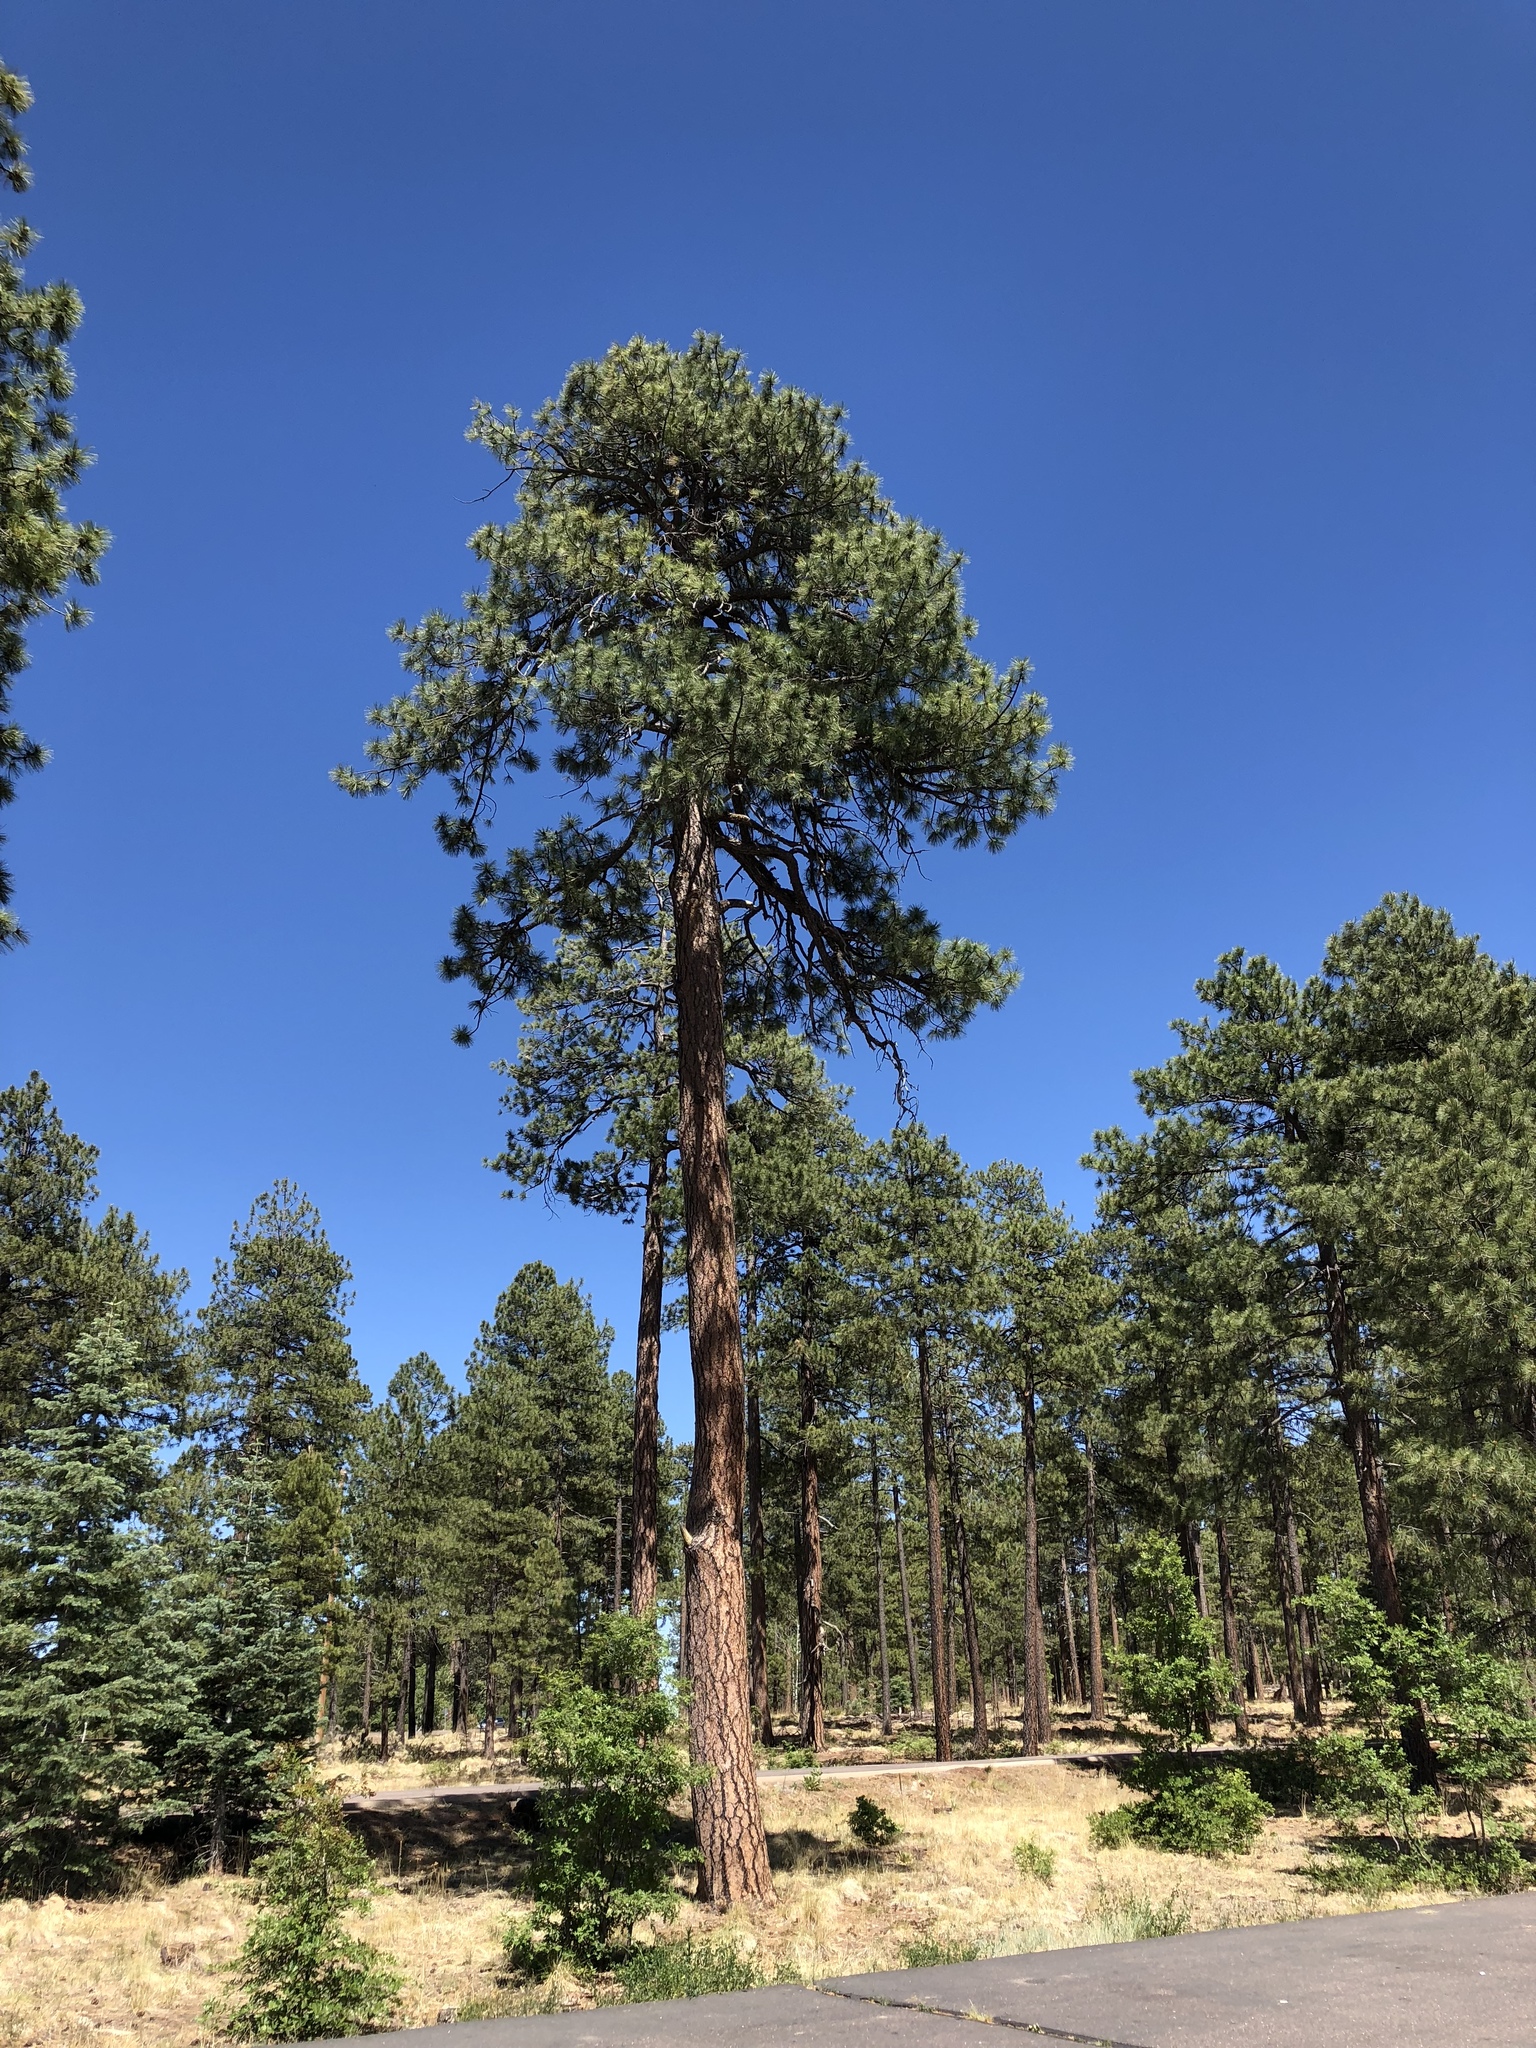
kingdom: Plantae
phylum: Tracheophyta
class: Pinopsida
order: Pinales
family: Pinaceae
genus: Pinus
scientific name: Pinus ponderosa
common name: Western yellow-pine
